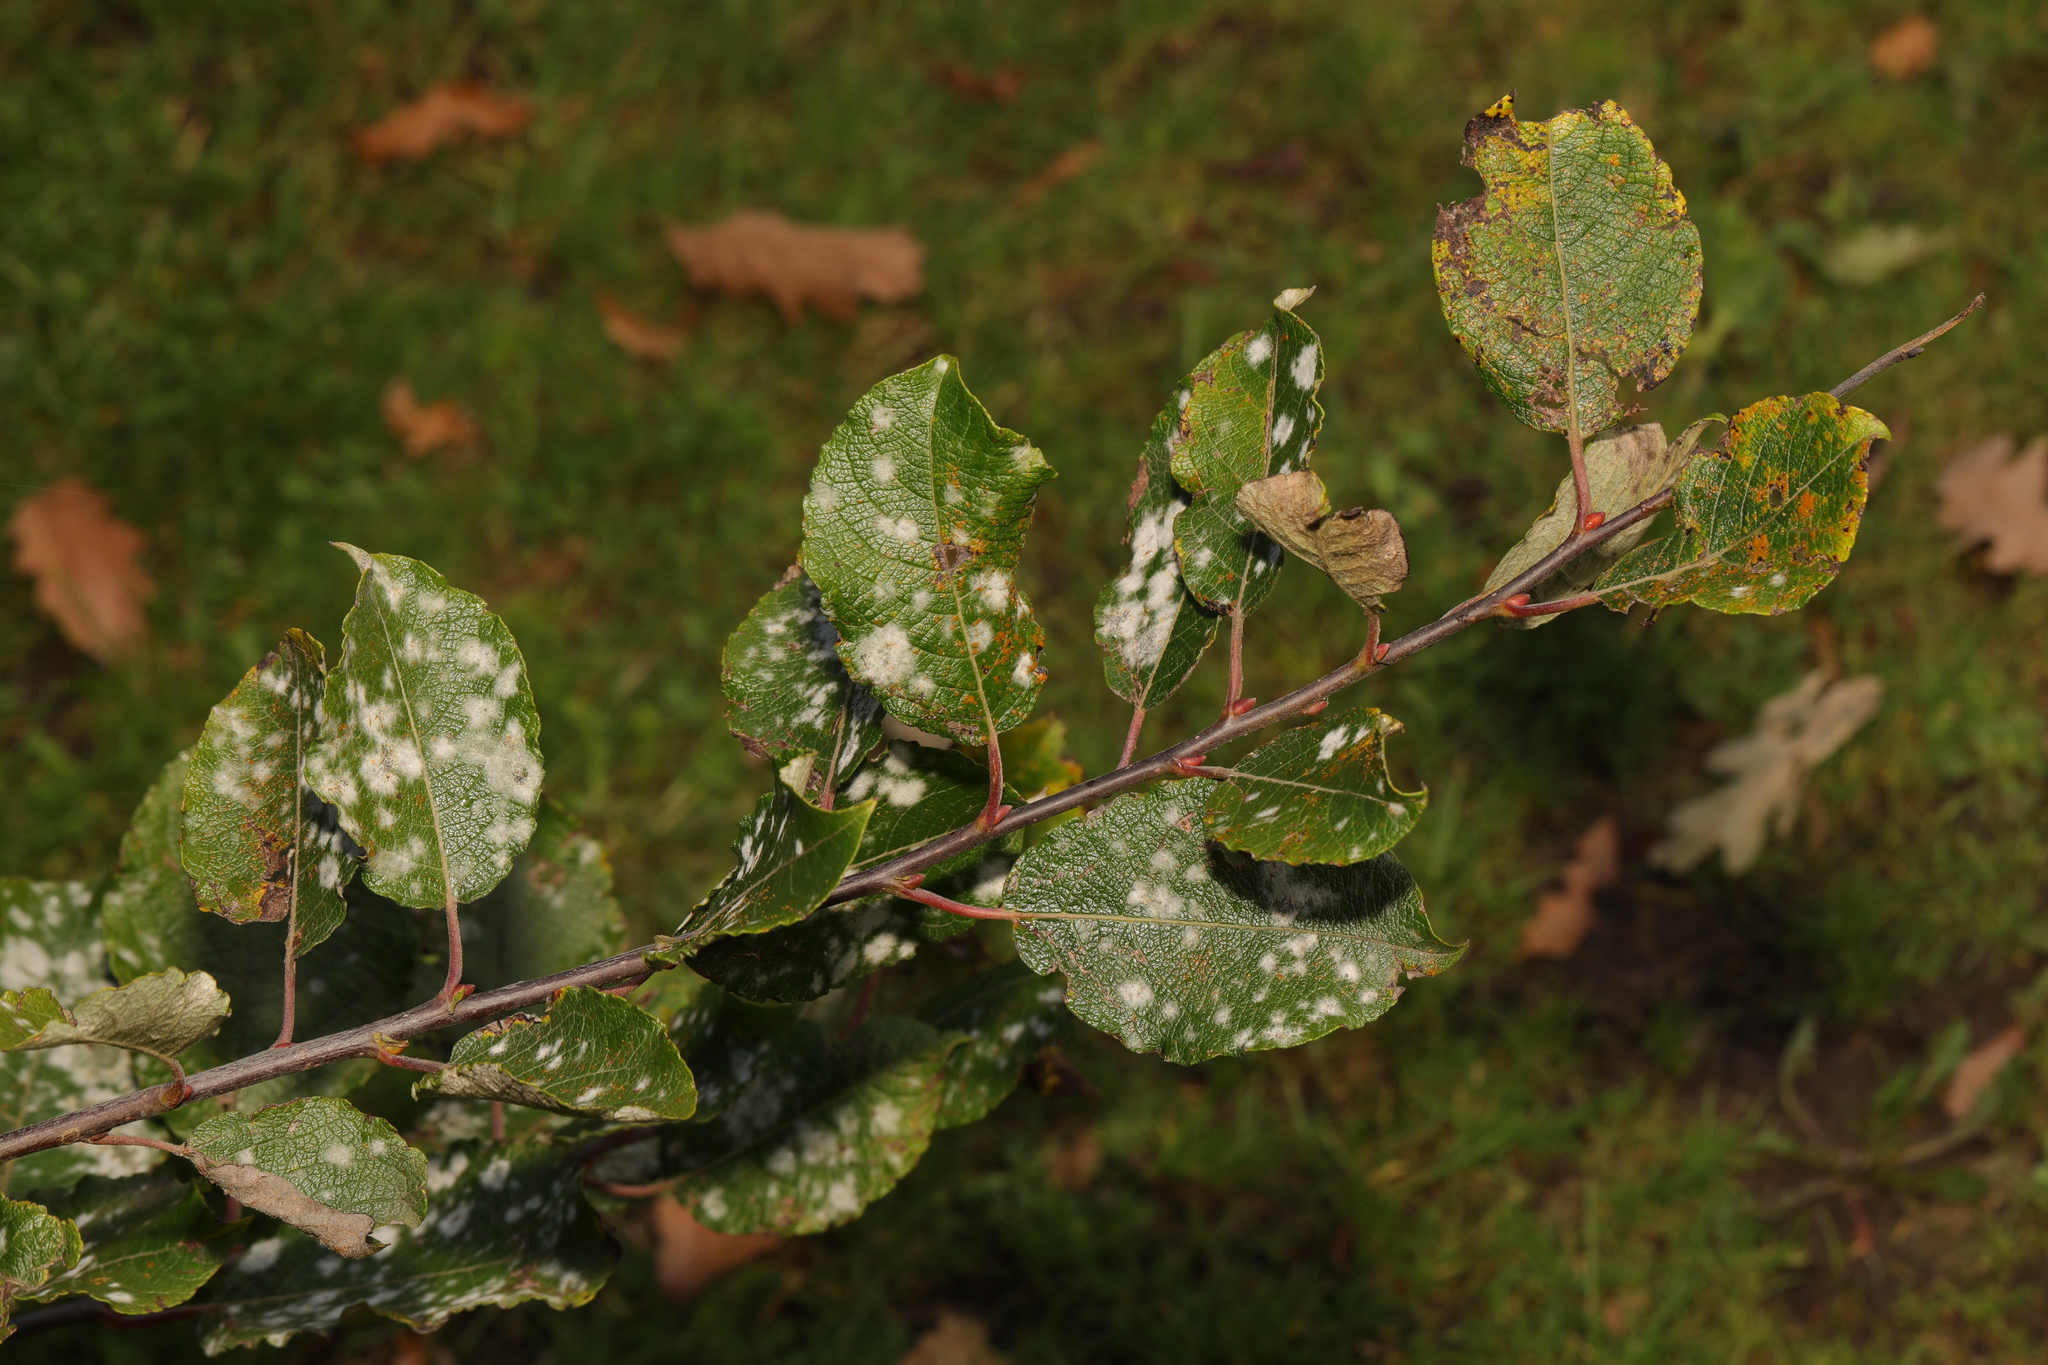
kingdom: Plantae
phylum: Tracheophyta
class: Magnoliopsida
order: Malpighiales
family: Salicaceae
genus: Salix
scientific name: Salix caprea
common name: Goat willow
